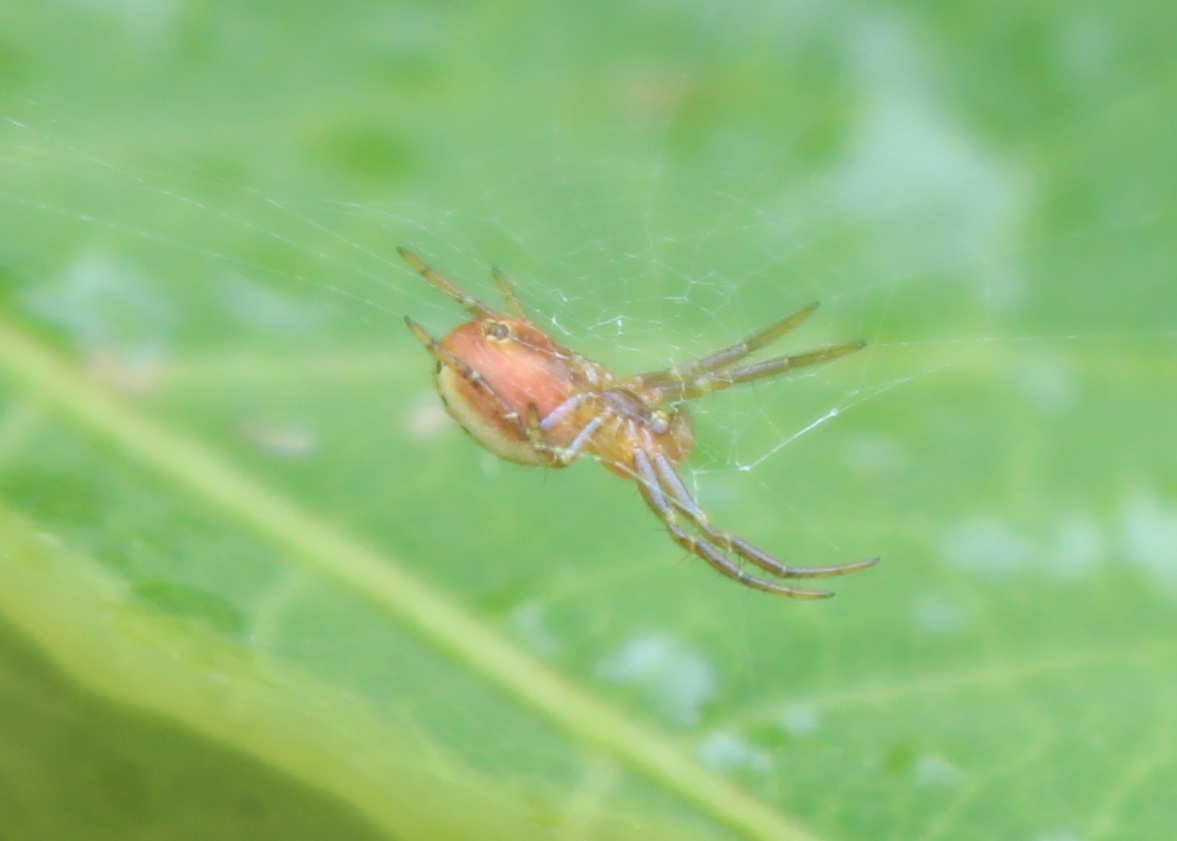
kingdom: Animalia
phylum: Arthropoda
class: Arachnida
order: Araneae
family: Araneidae
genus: Araniella
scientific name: Araniella displicata
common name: Sixspotted orb weaver
